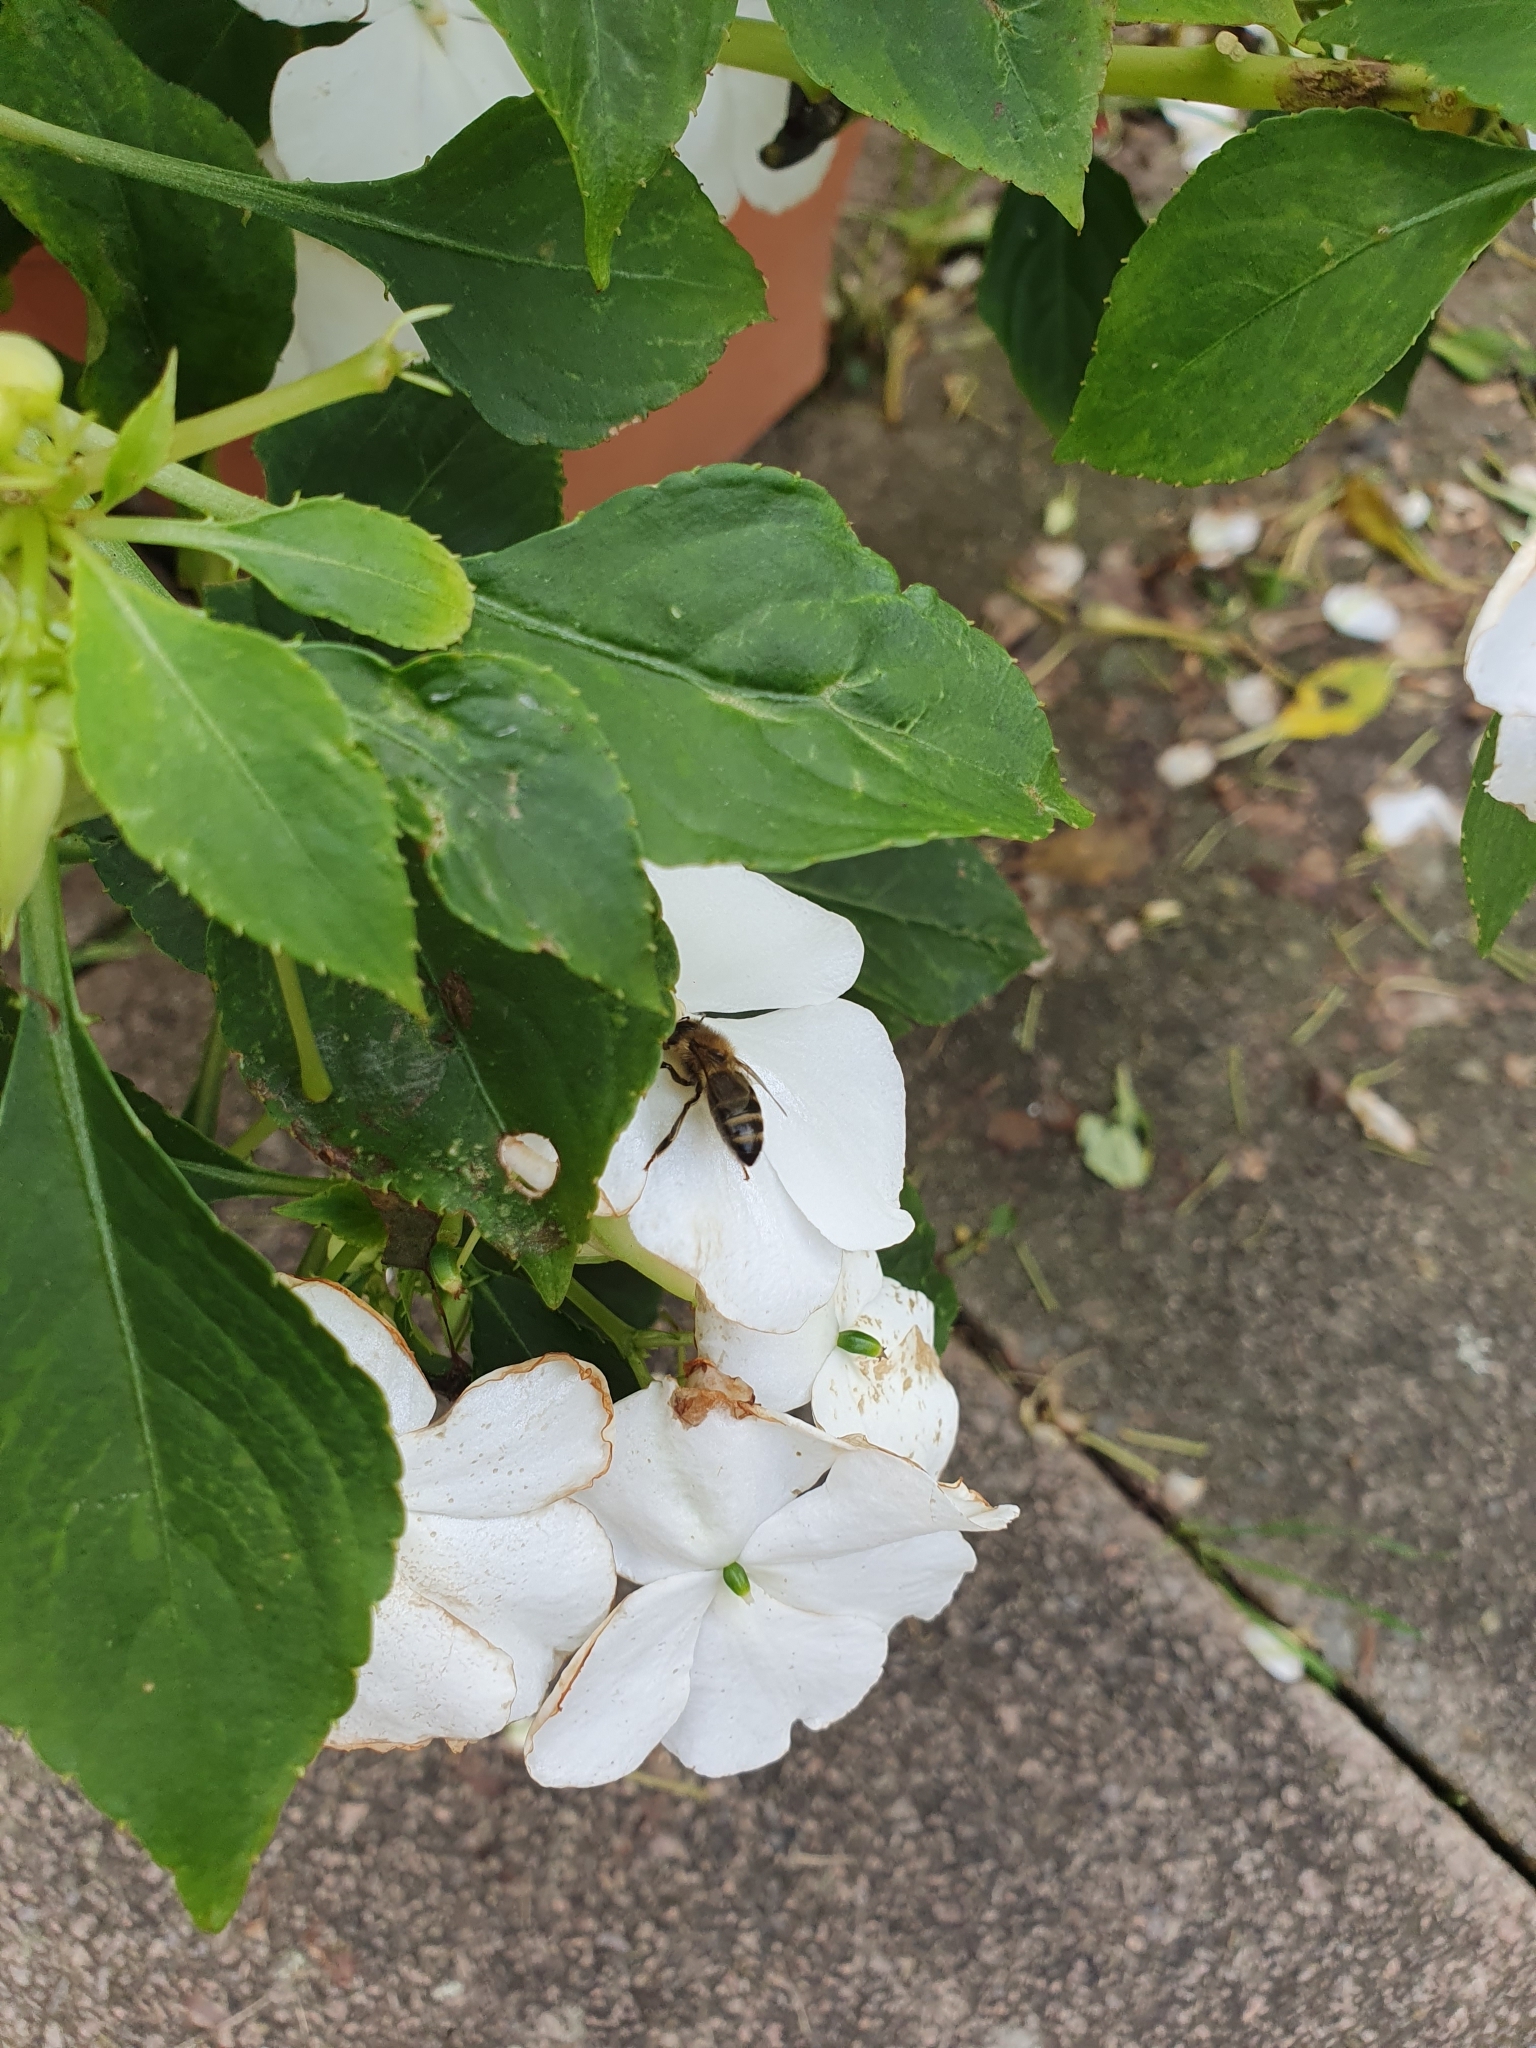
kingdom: Animalia
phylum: Arthropoda
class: Insecta
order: Hymenoptera
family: Apidae
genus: Apis
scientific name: Apis mellifera
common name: Honey bee
